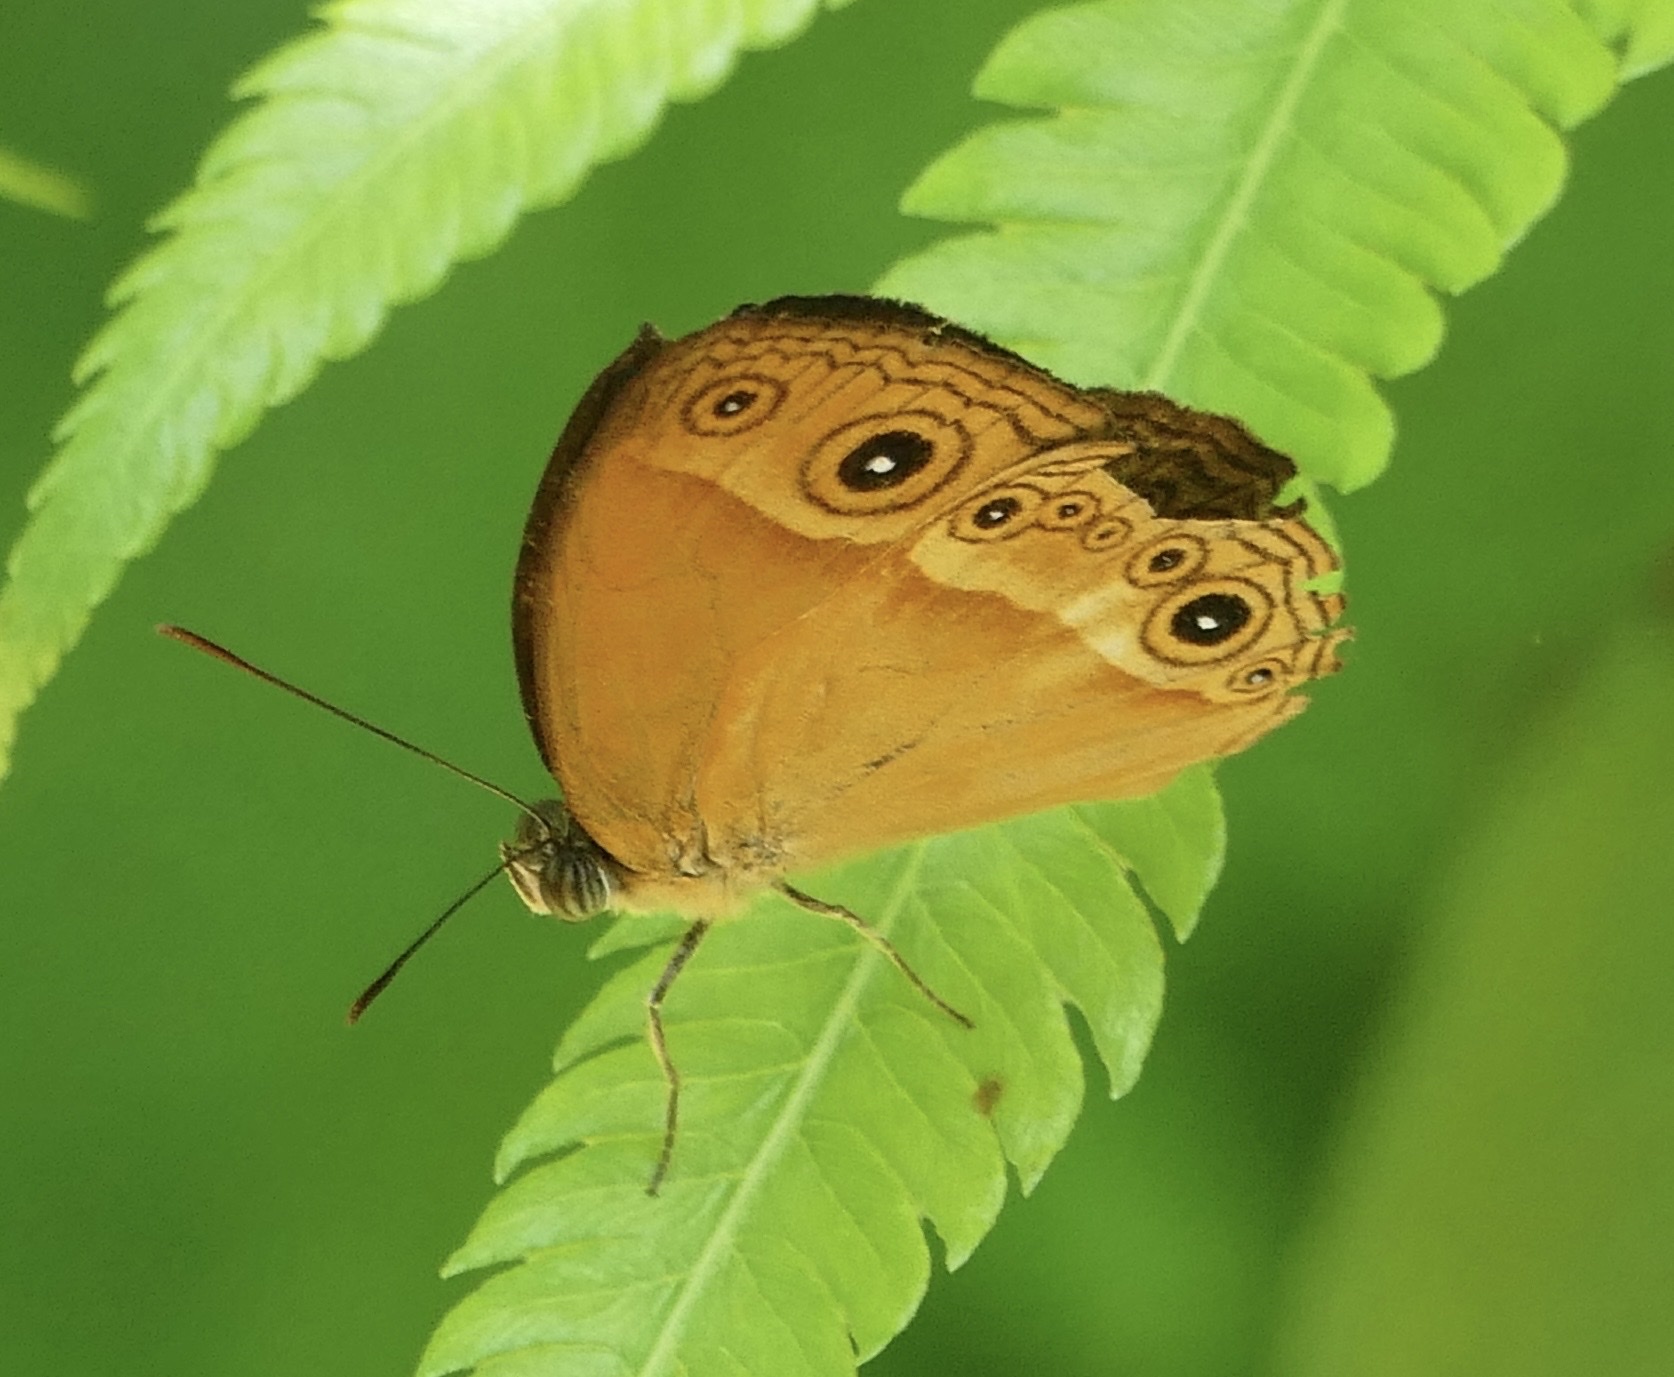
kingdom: Animalia
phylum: Arthropoda
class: Insecta
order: Lepidoptera
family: Nymphalidae
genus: Mycalesis
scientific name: Mycalesis phidon
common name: Hewitson's bushbrown
